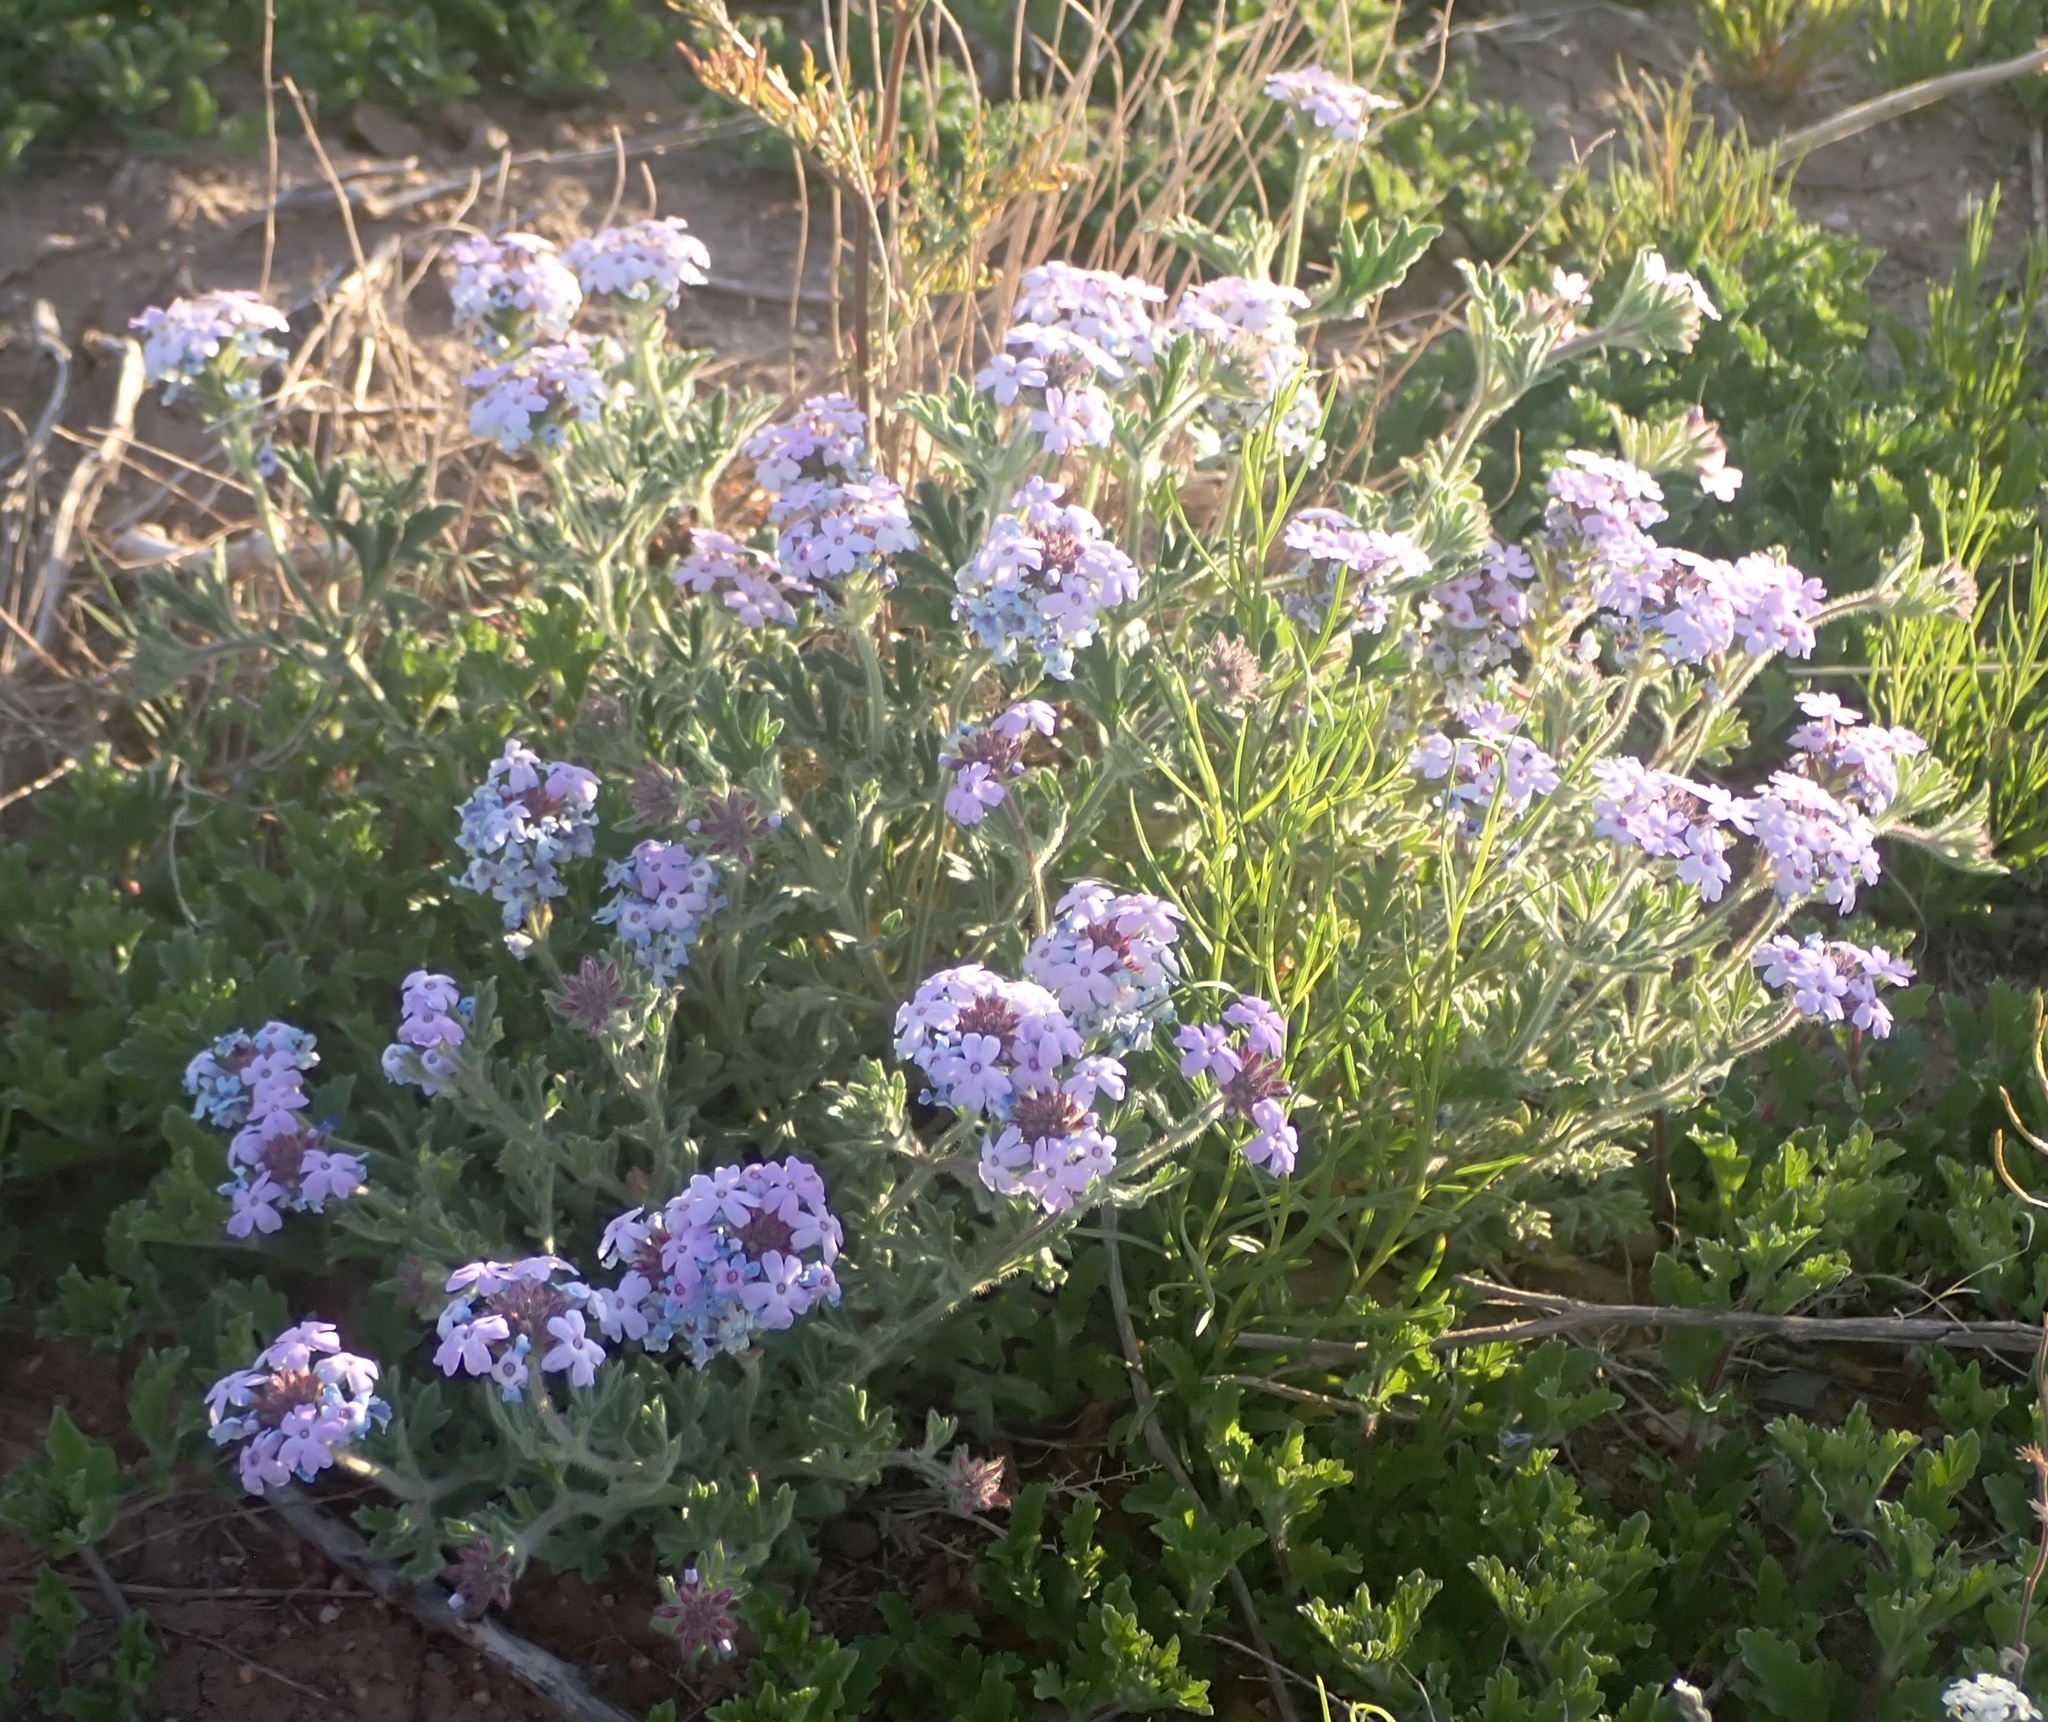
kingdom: Plantae
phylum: Tracheophyta
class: Magnoliopsida
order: Lamiales
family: Verbenaceae
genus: Verbena
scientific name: Verbena gooddingii
